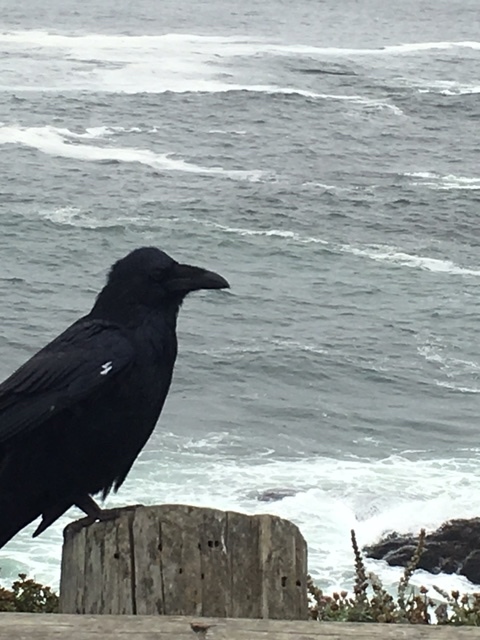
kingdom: Animalia
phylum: Chordata
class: Aves
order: Passeriformes
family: Corvidae
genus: Corvus
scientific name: Corvus corax
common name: Common raven
